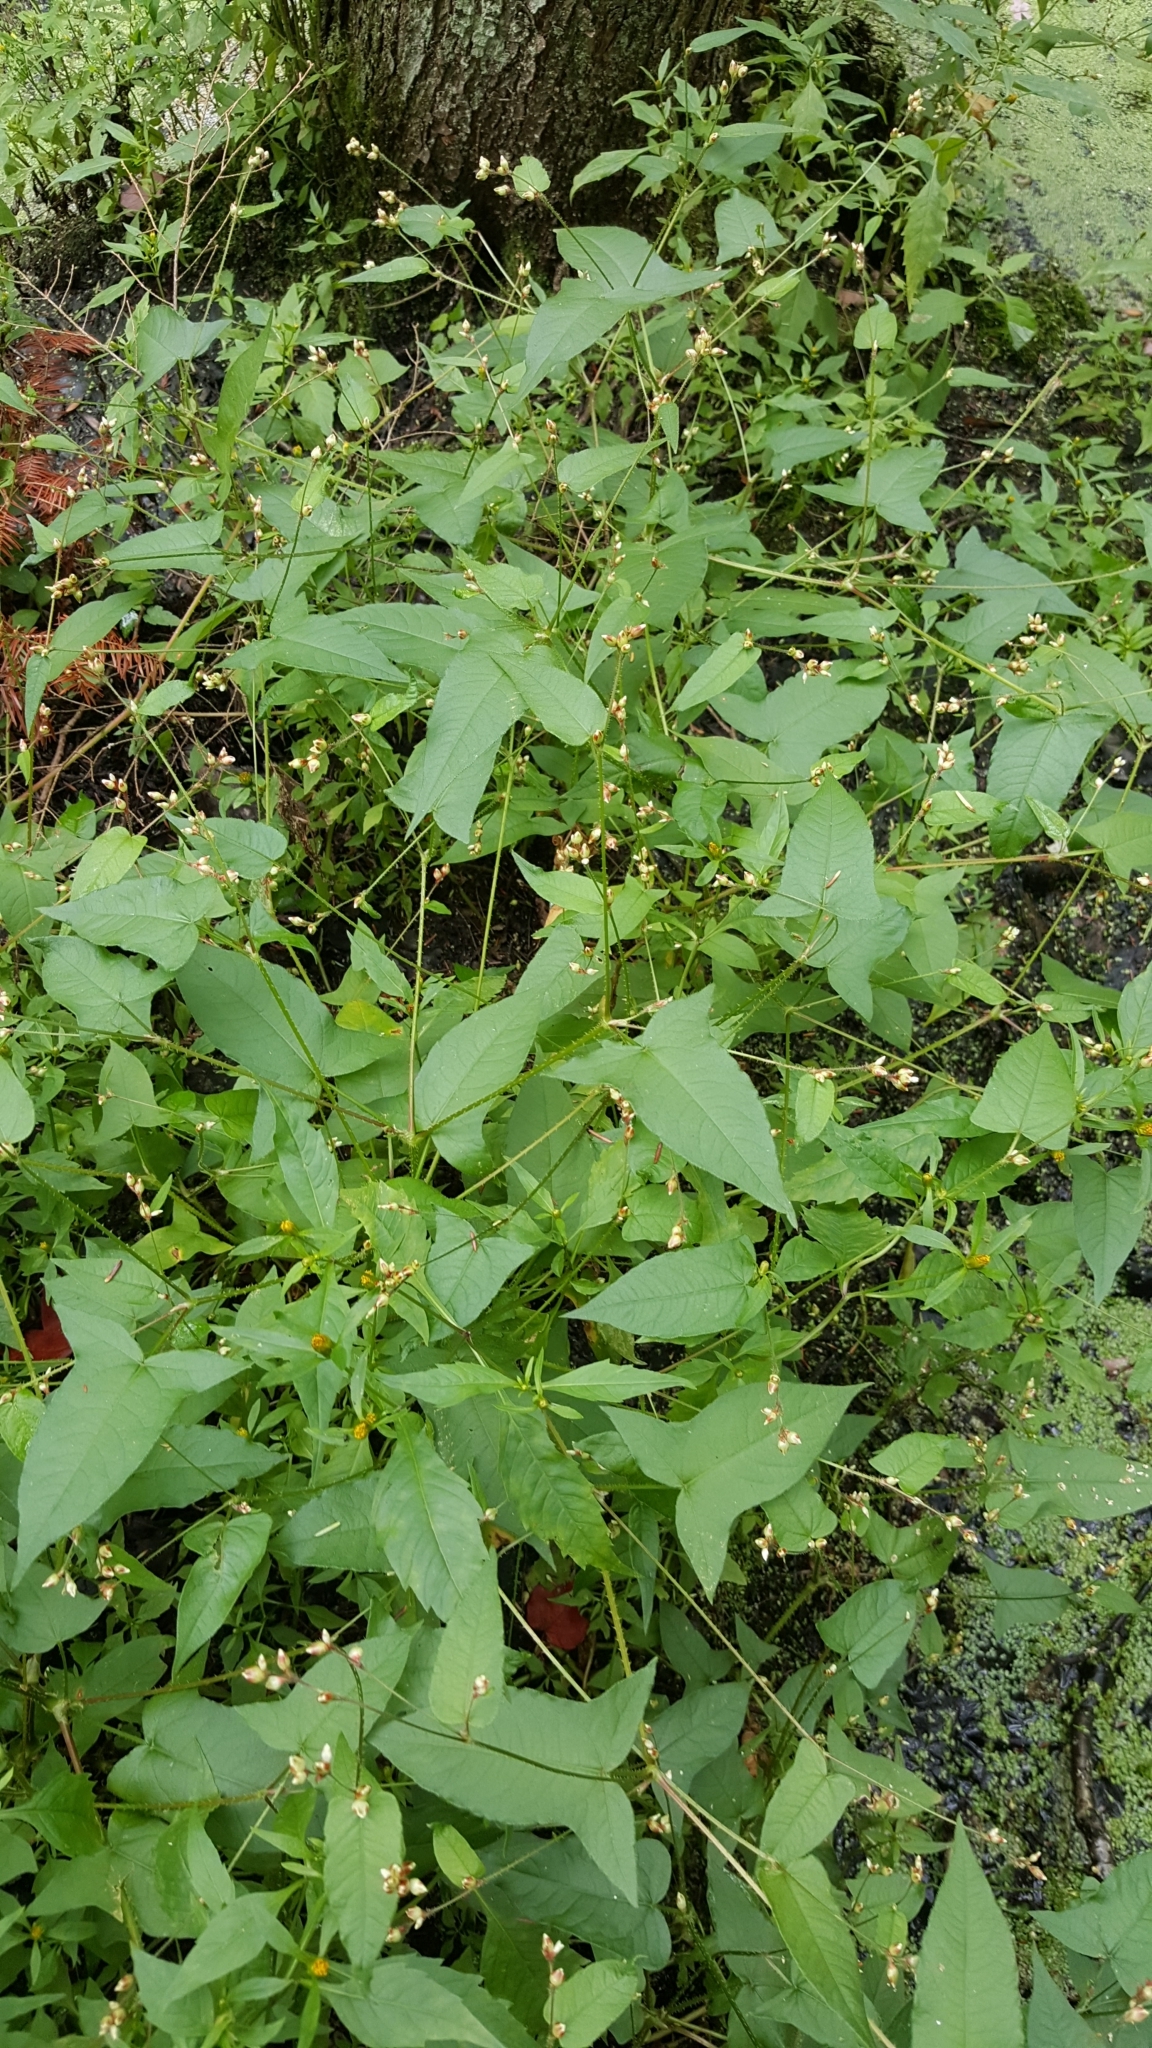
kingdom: Plantae
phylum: Tracheophyta
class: Magnoliopsida
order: Caryophyllales
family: Polygonaceae
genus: Persicaria
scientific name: Persicaria arifolia
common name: Halberd-leaved tear-thumb
